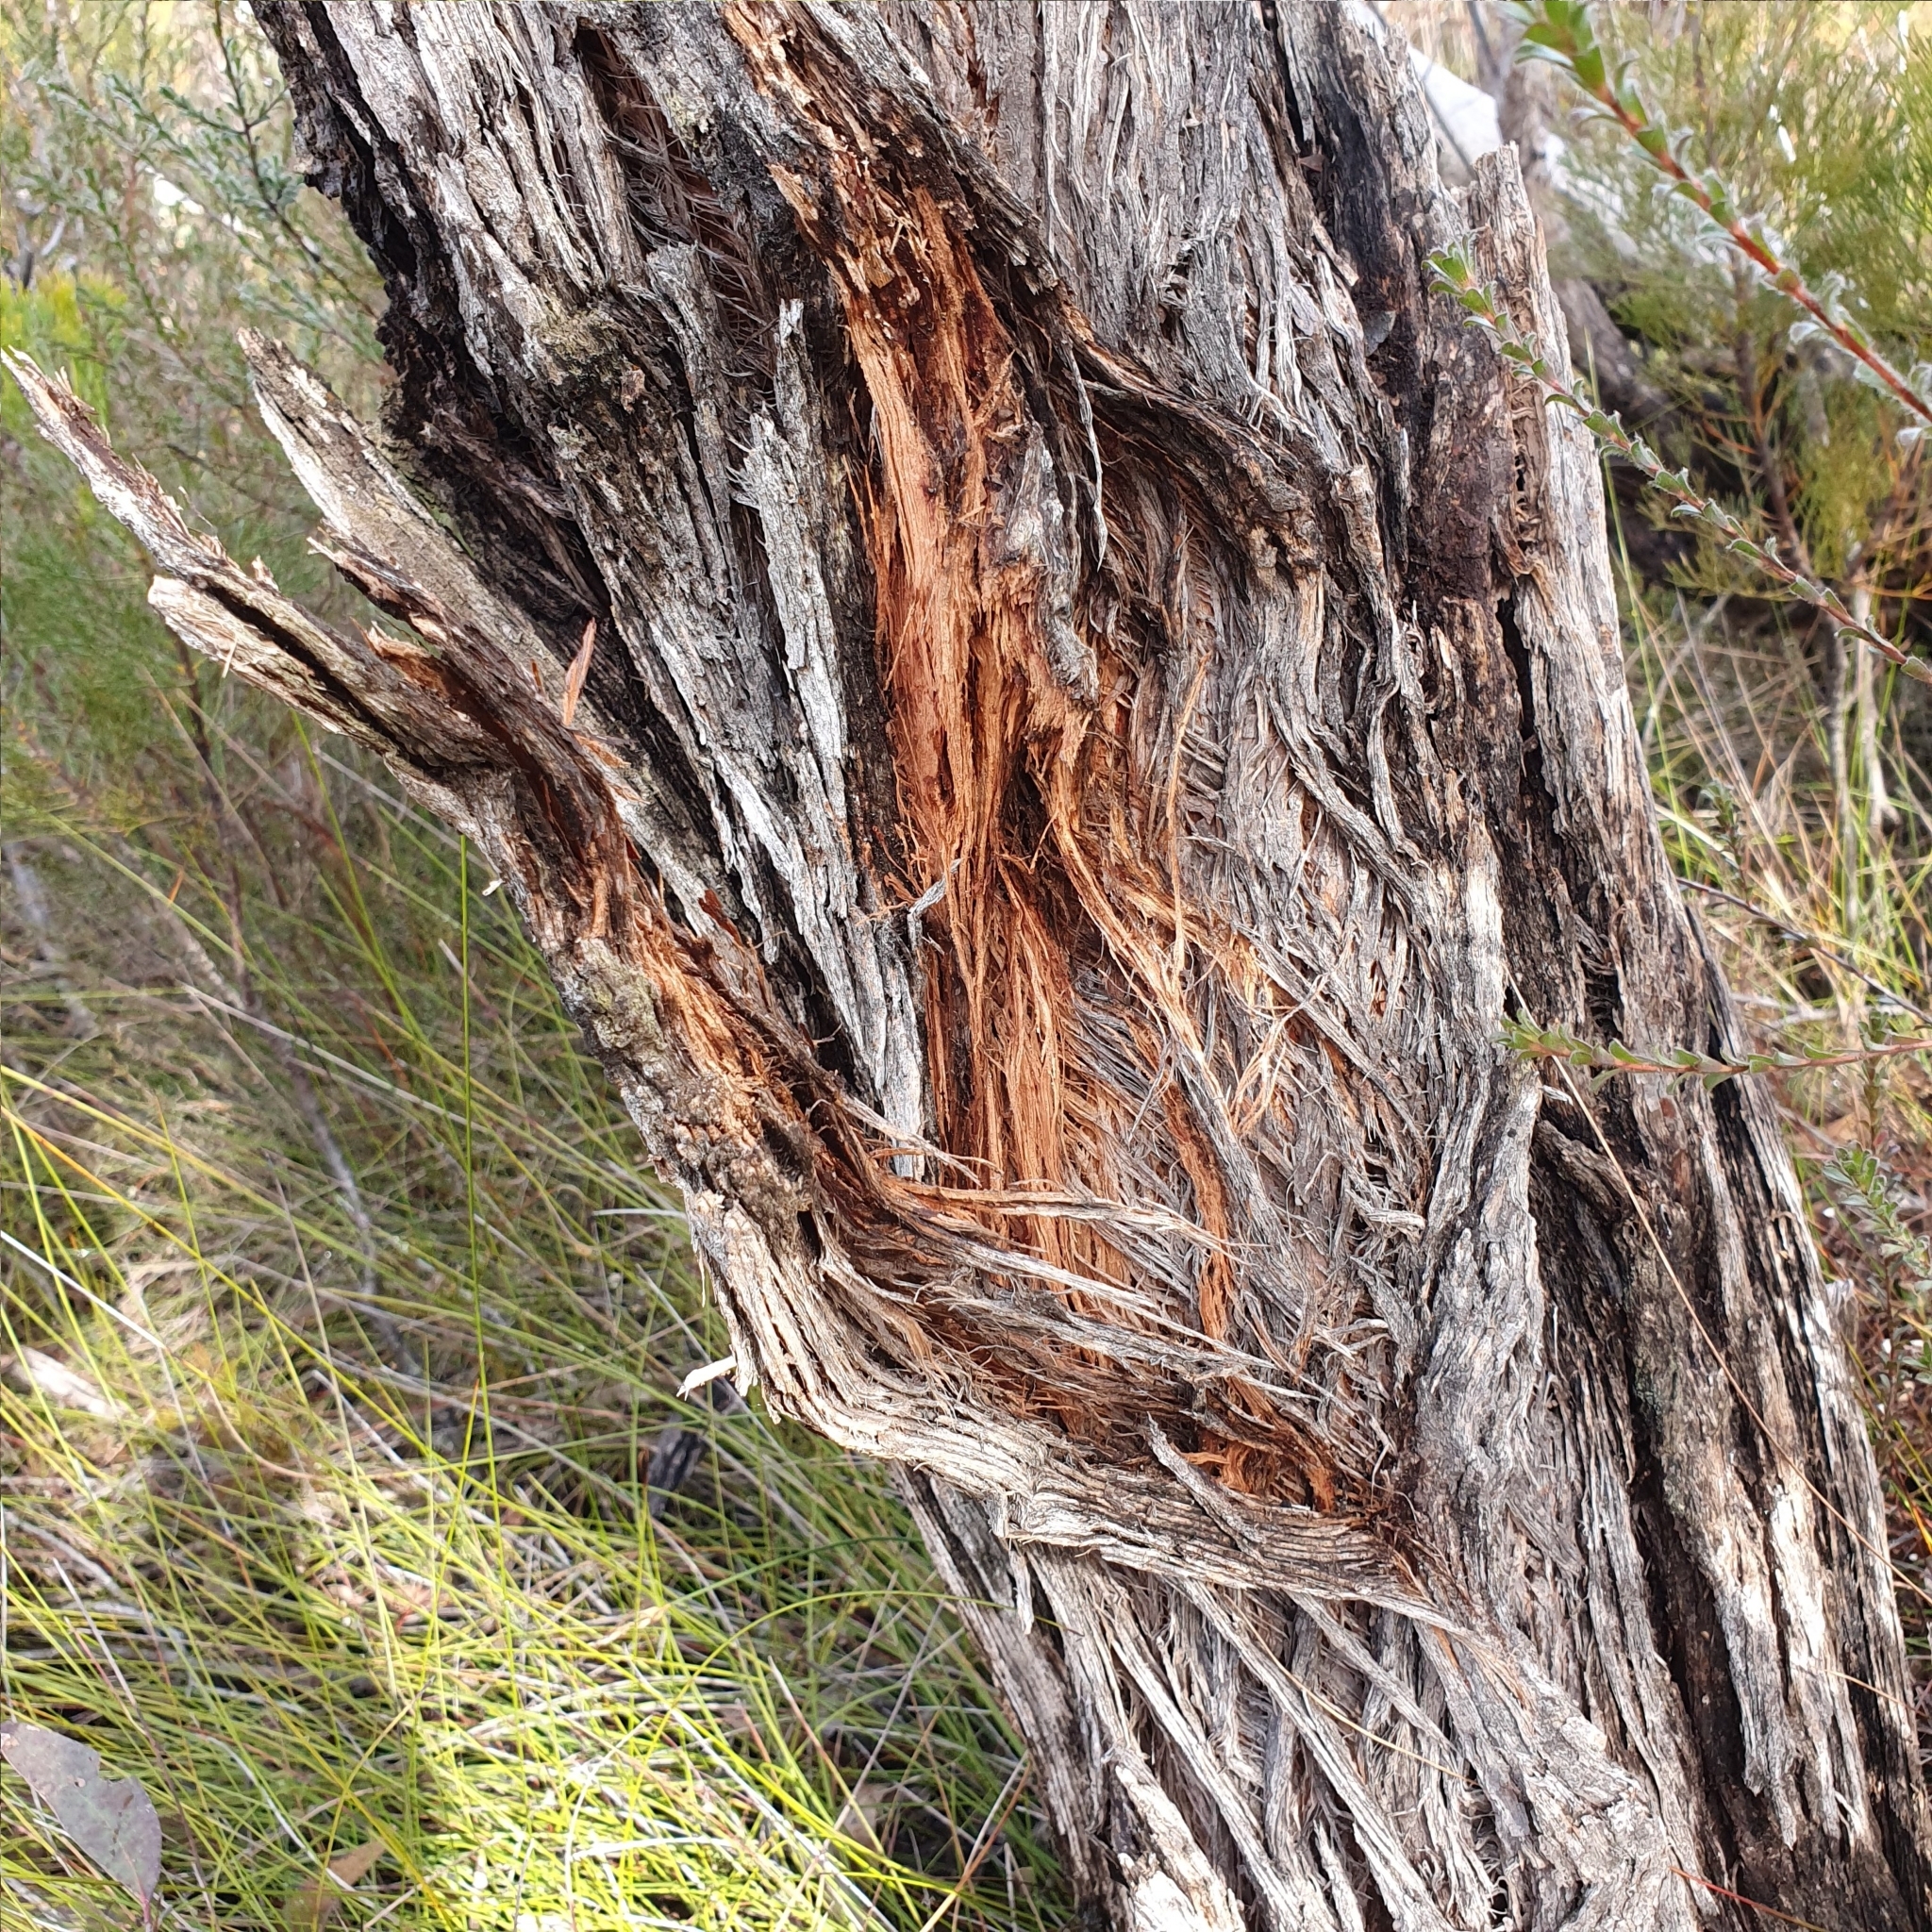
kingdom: Plantae
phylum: Tracheophyta
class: Magnoliopsida
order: Myrtales
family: Myrtaceae
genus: Eucalyptus
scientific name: Eucalyptus ligustrina
